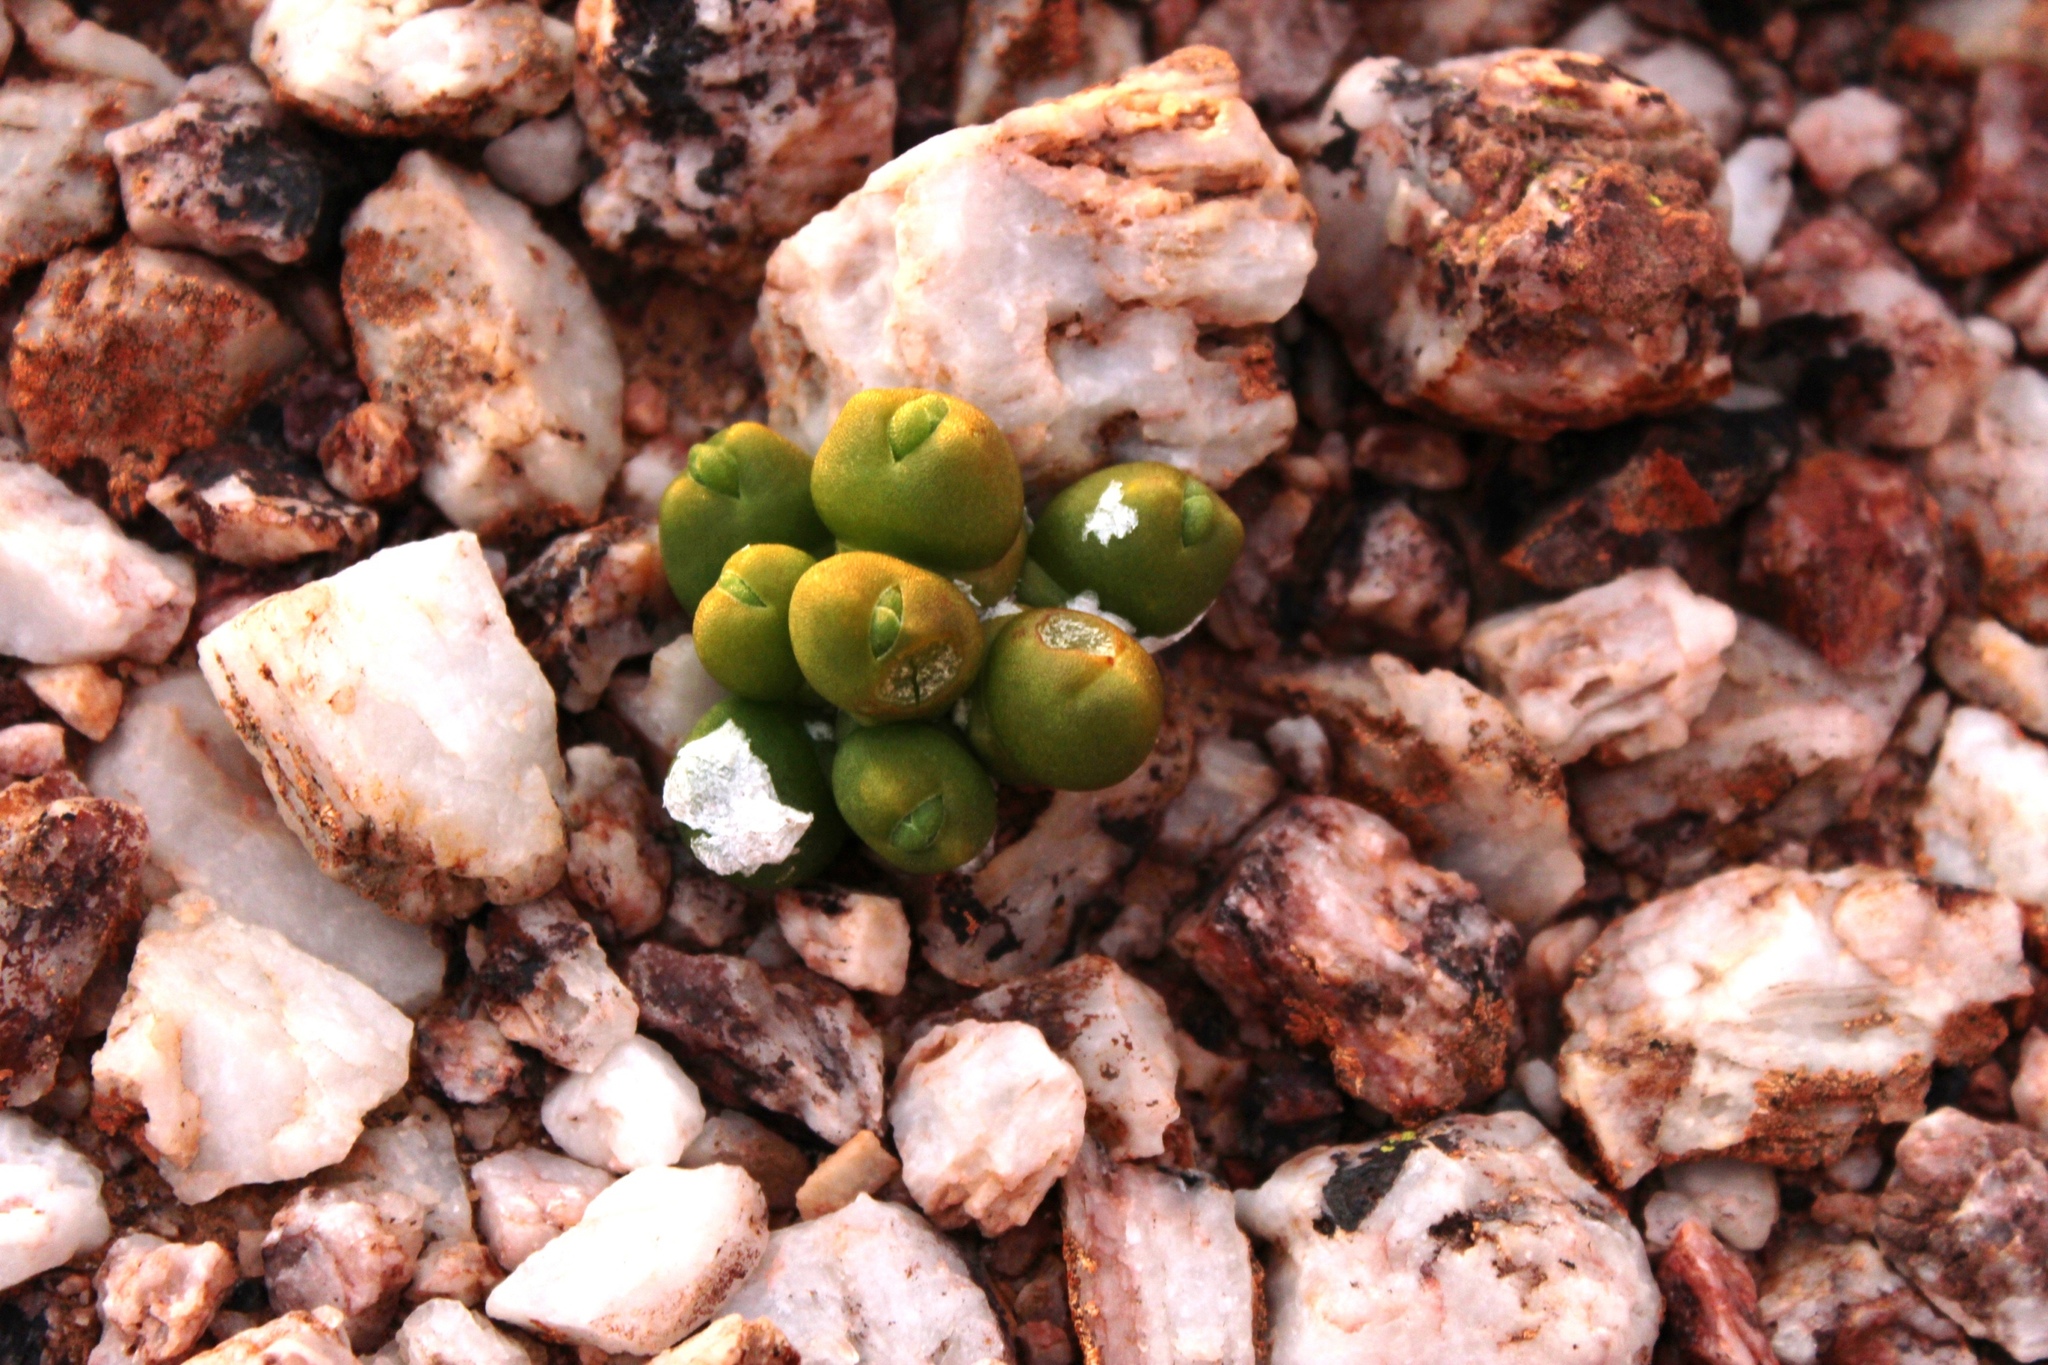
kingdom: Plantae
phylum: Tracheophyta
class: Magnoliopsida
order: Caryophyllales
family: Aizoaceae
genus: Oophytum
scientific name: Oophytum nanum
